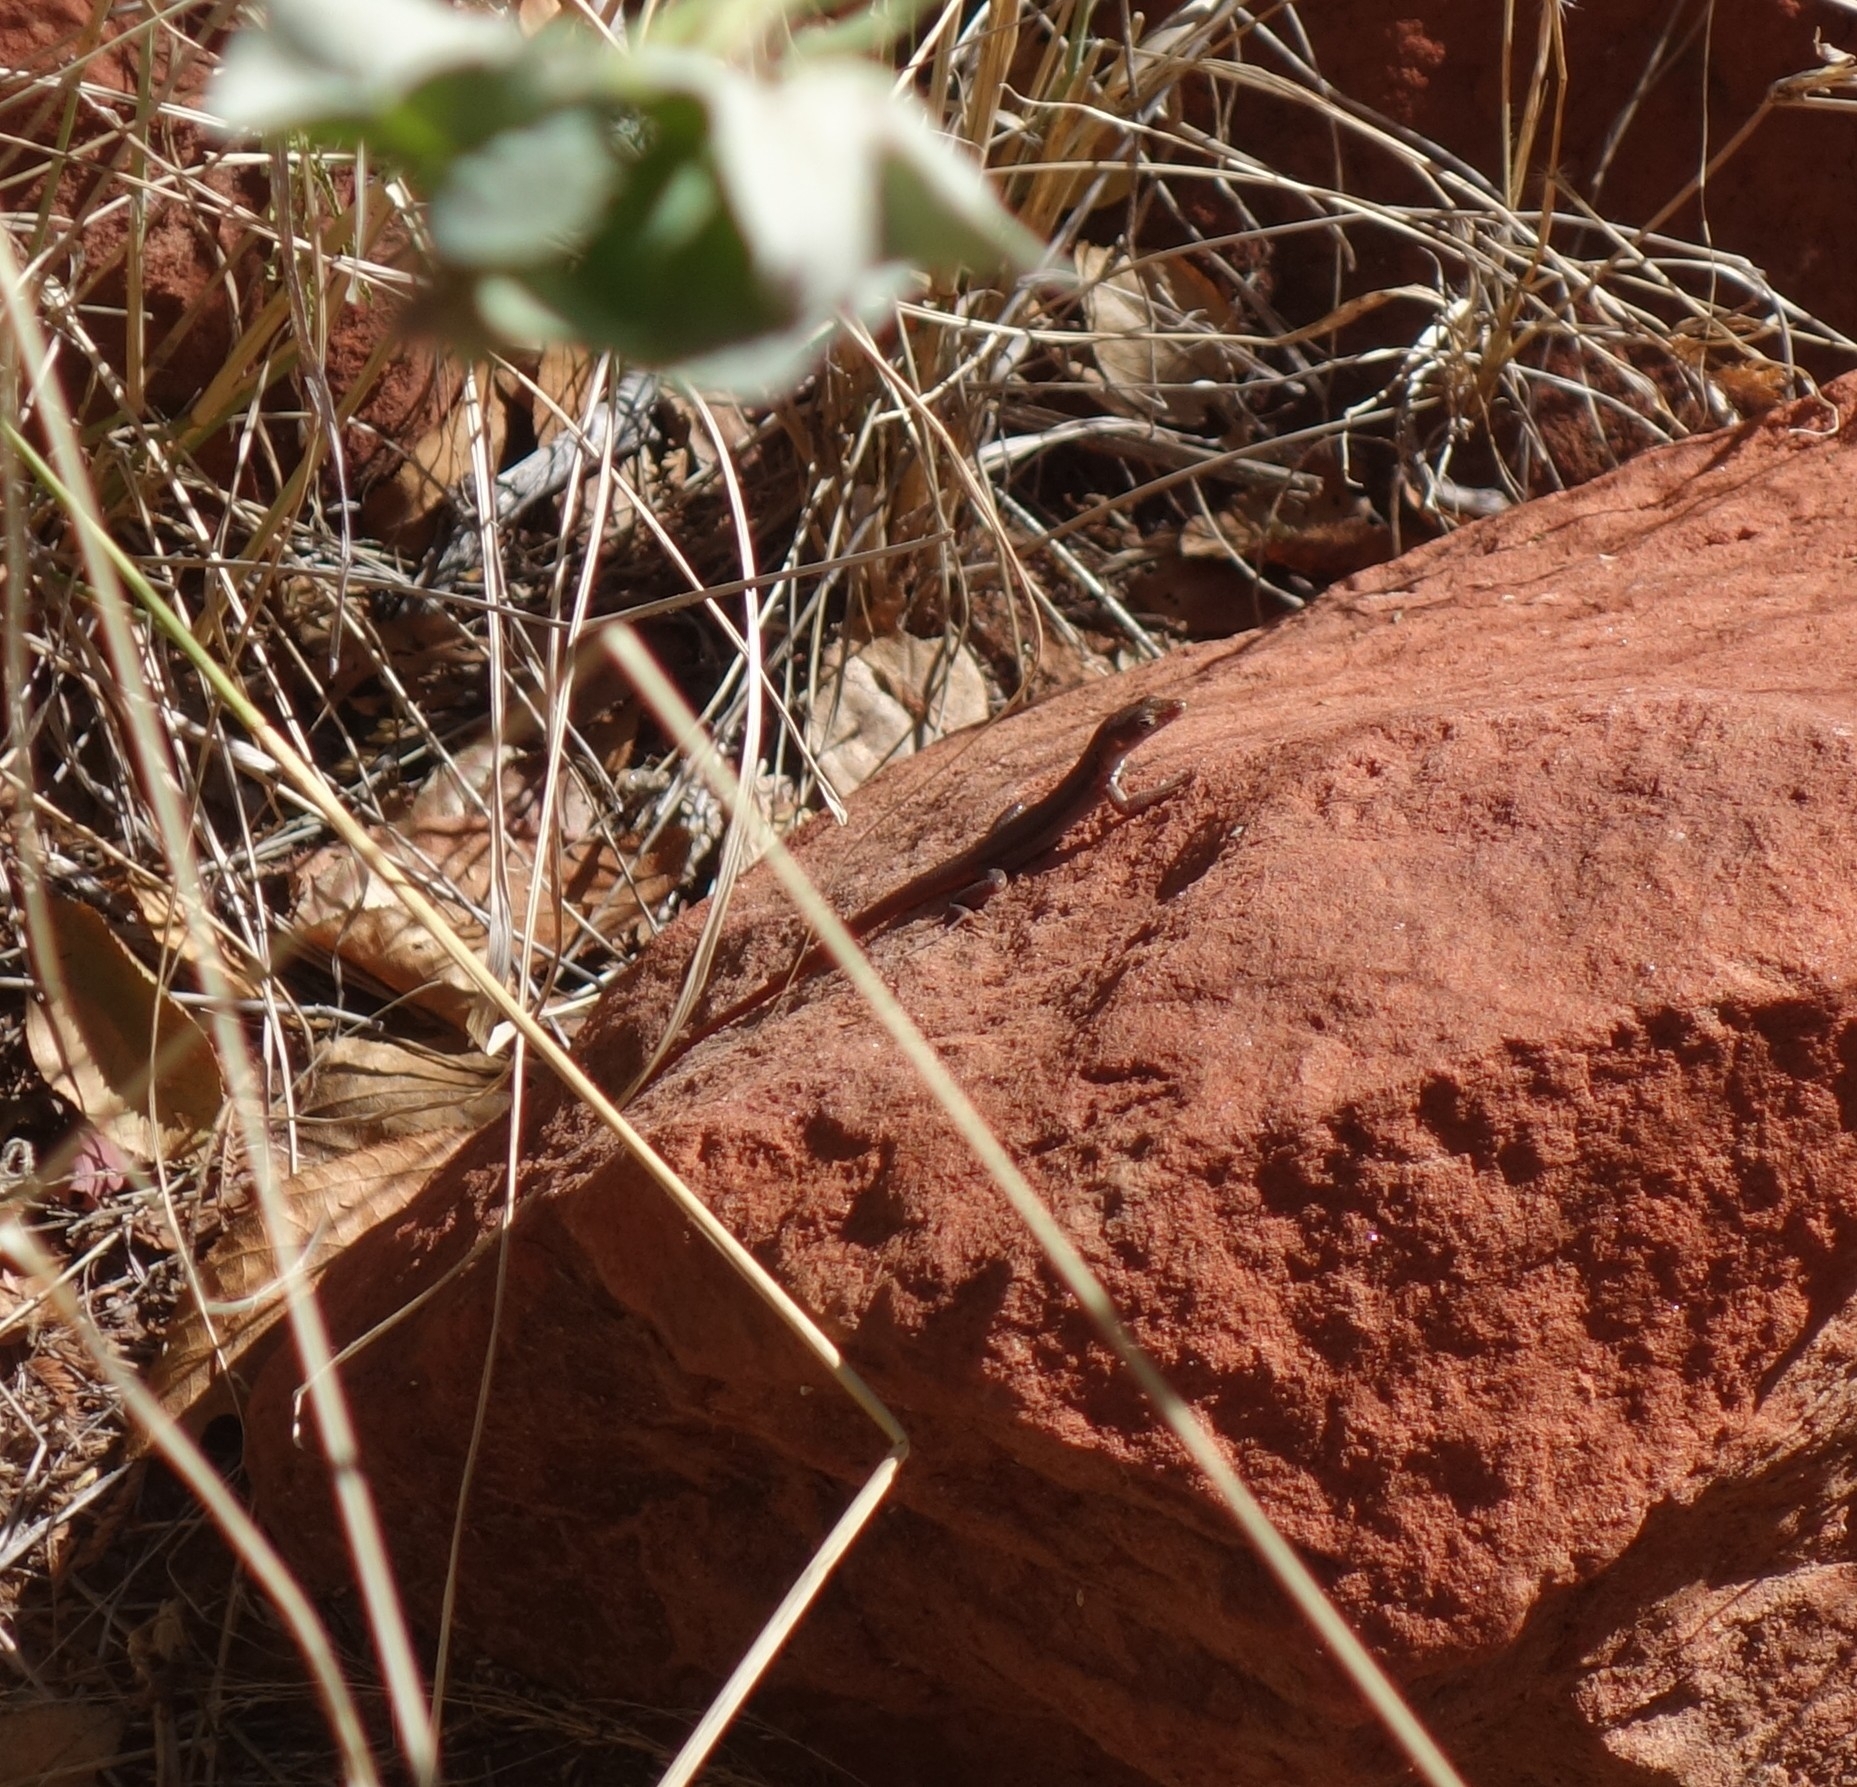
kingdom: Animalia
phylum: Chordata
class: Squamata
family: Lacertidae
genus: Pedioplanis
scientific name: Pedioplanis rubens
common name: Ruben's sand lizard
